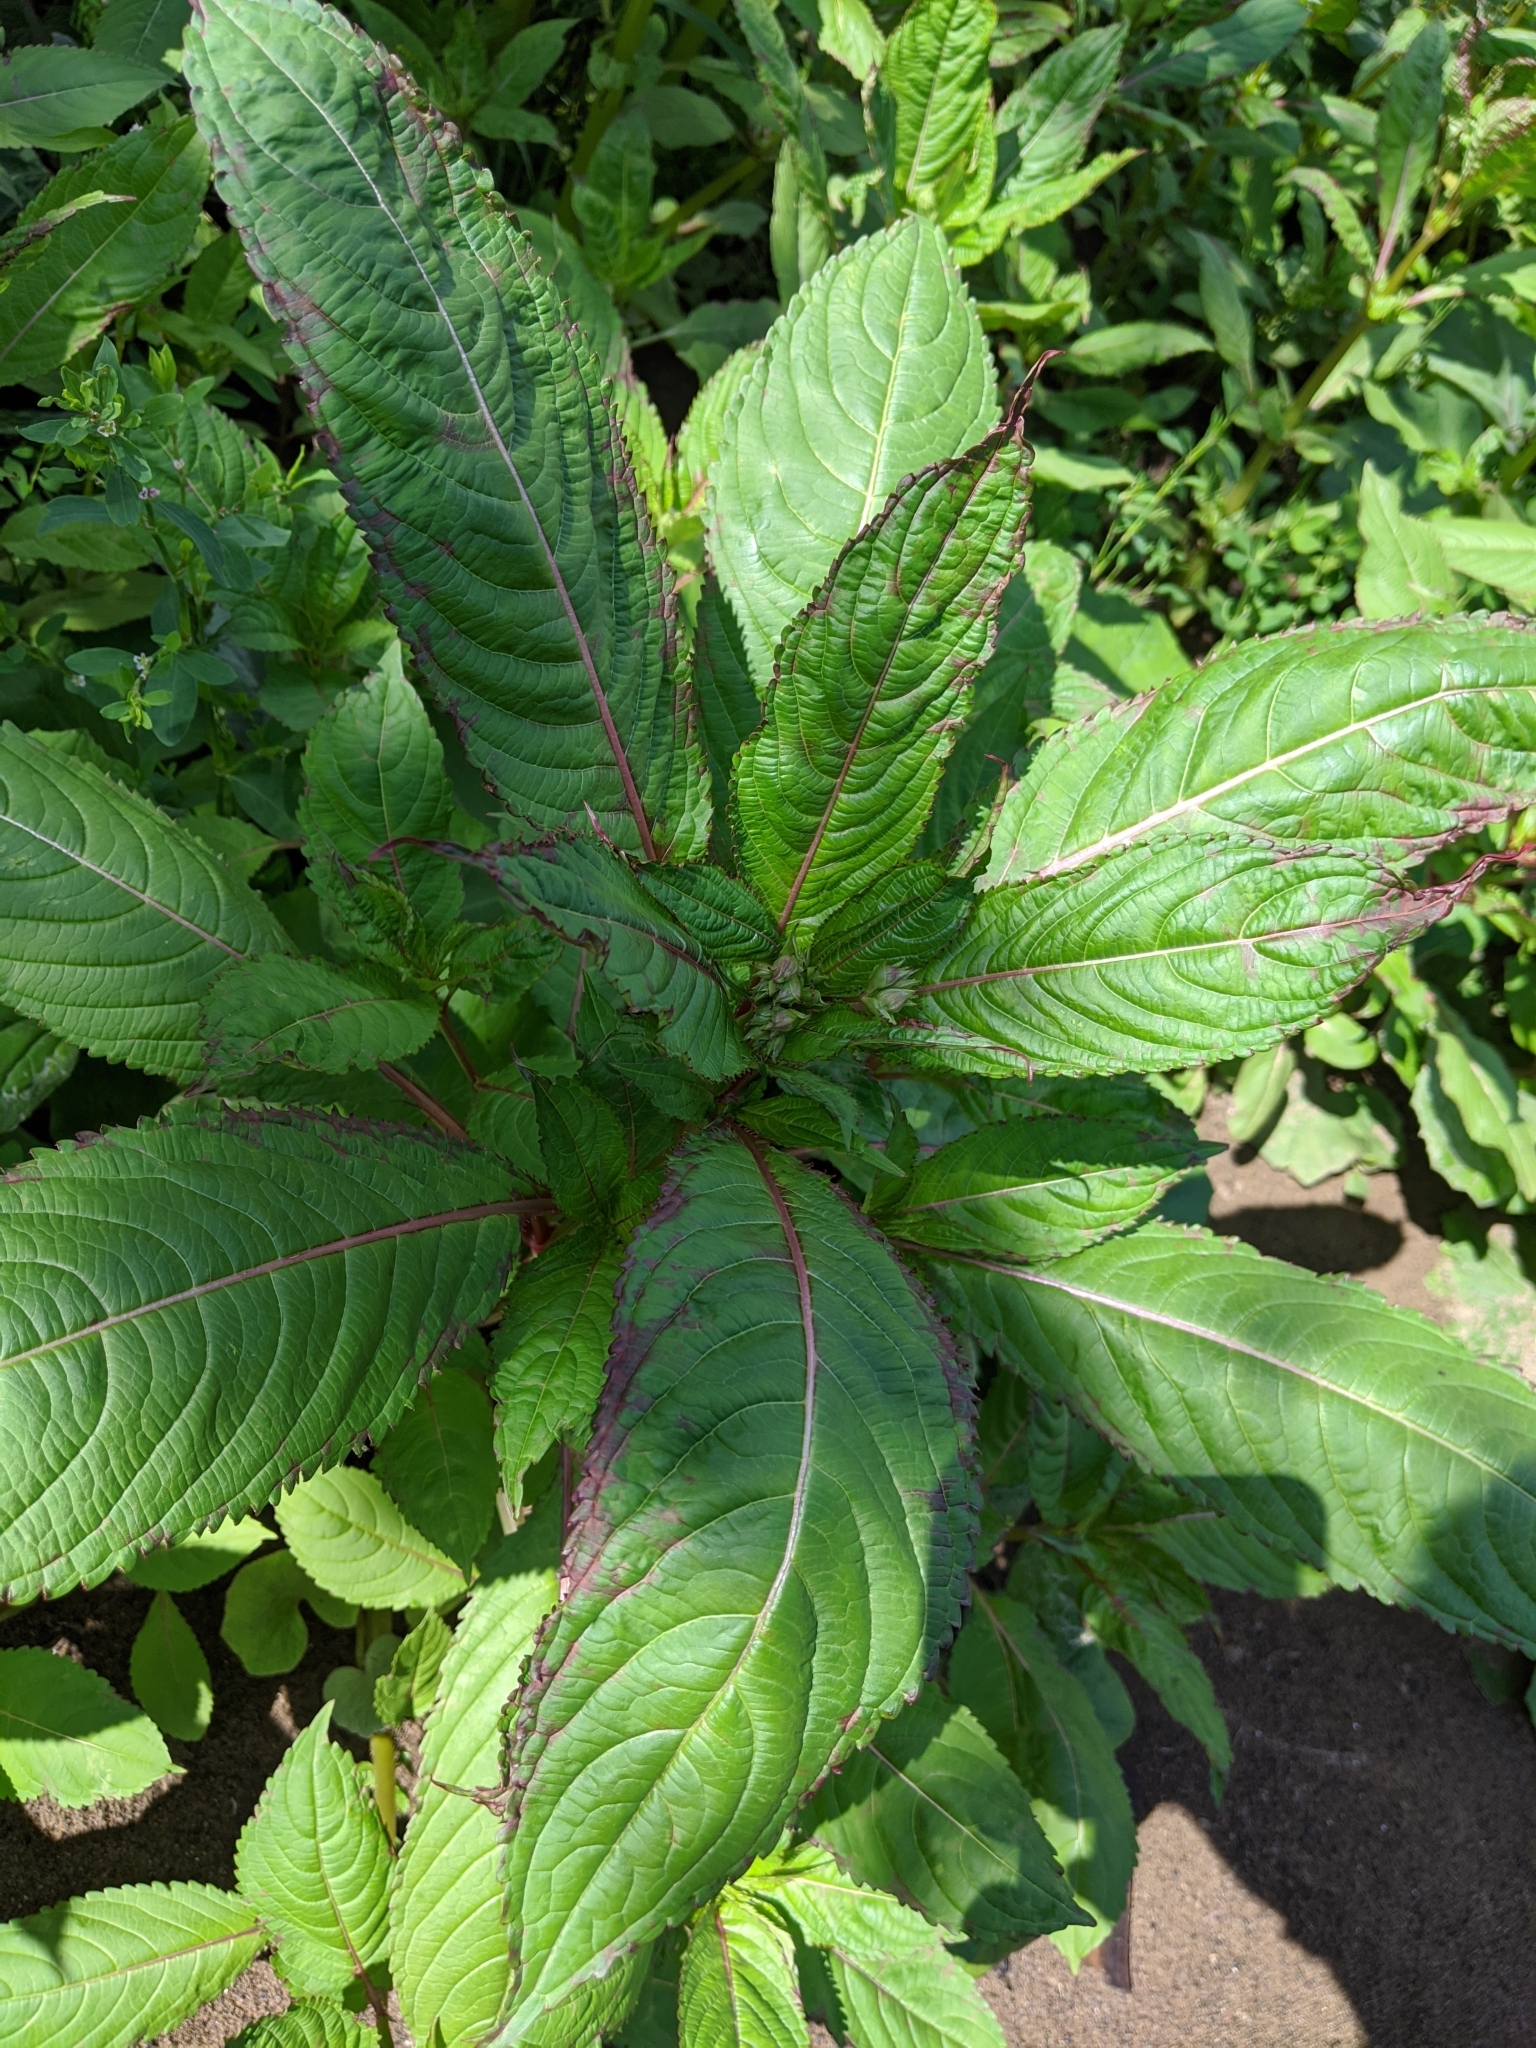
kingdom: Plantae
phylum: Tracheophyta
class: Magnoliopsida
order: Ericales
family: Balsaminaceae
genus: Impatiens
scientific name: Impatiens glandulifera
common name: Himalayan balsam
